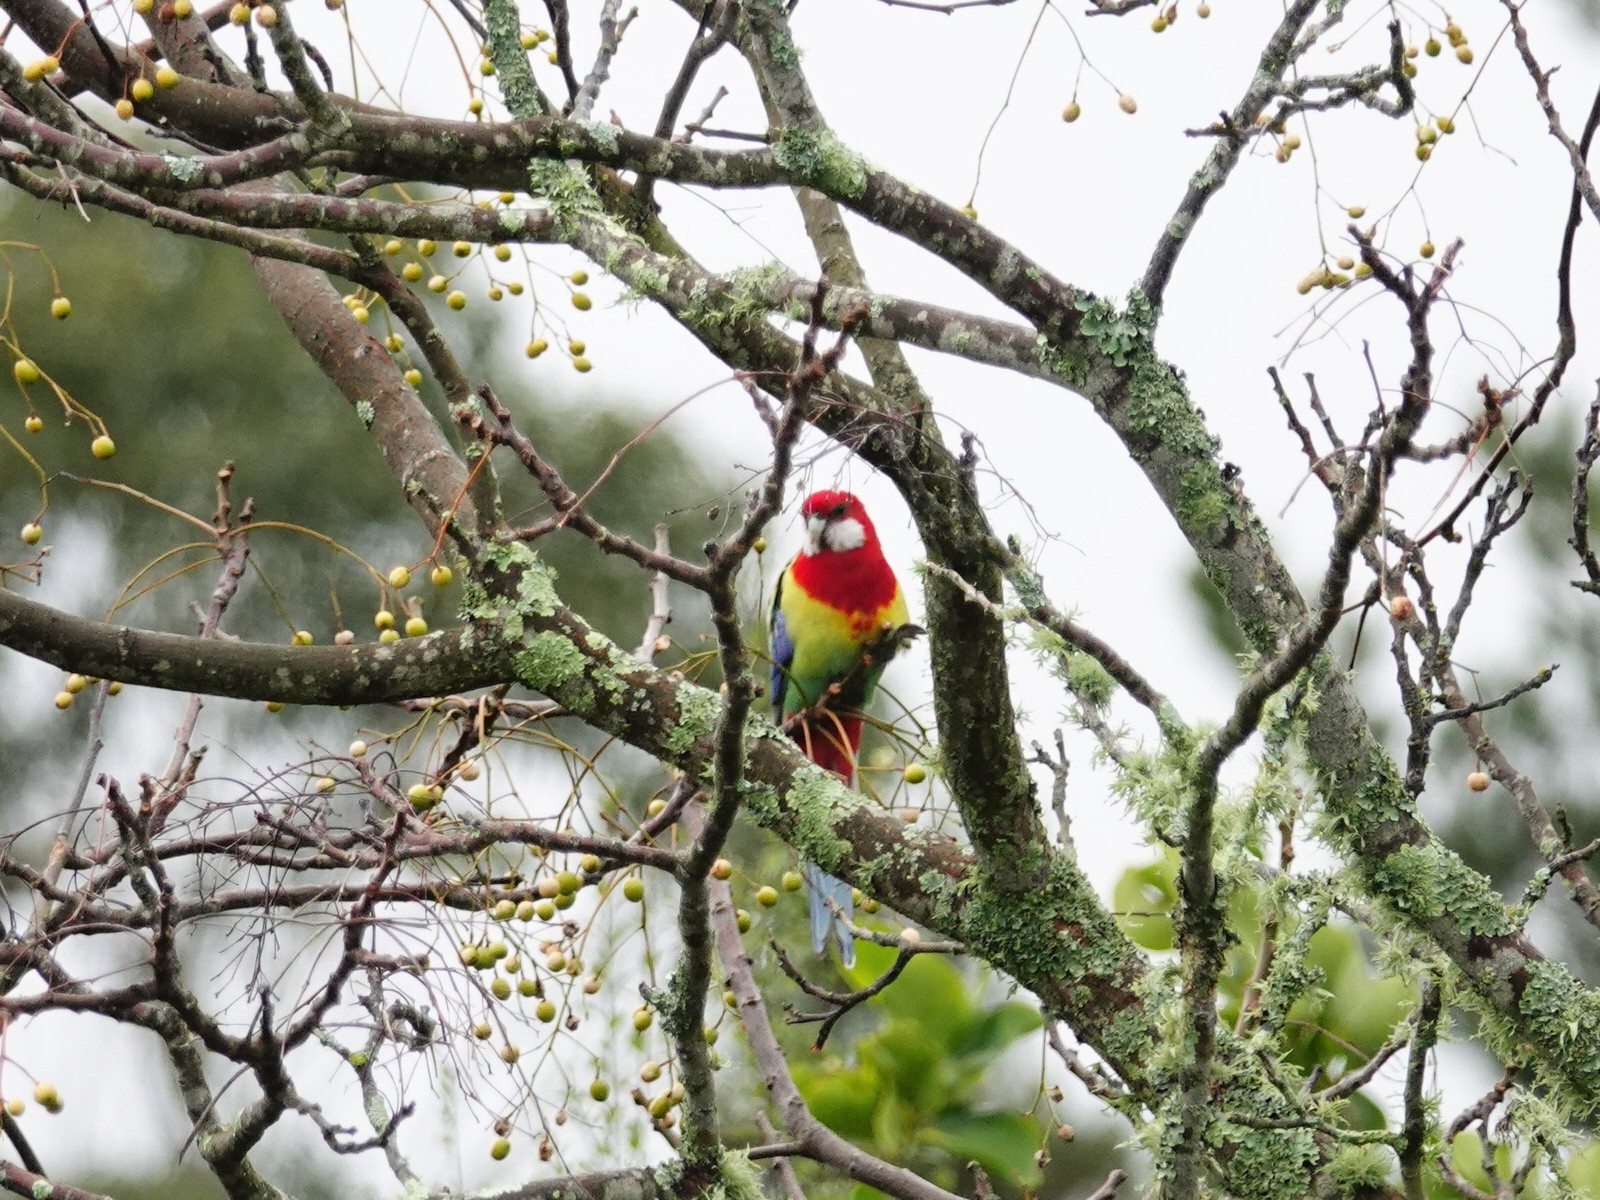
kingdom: Animalia
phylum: Chordata
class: Aves
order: Psittaciformes
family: Psittacidae
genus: Platycercus
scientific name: Platycercus eximius
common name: Eastern rosella
